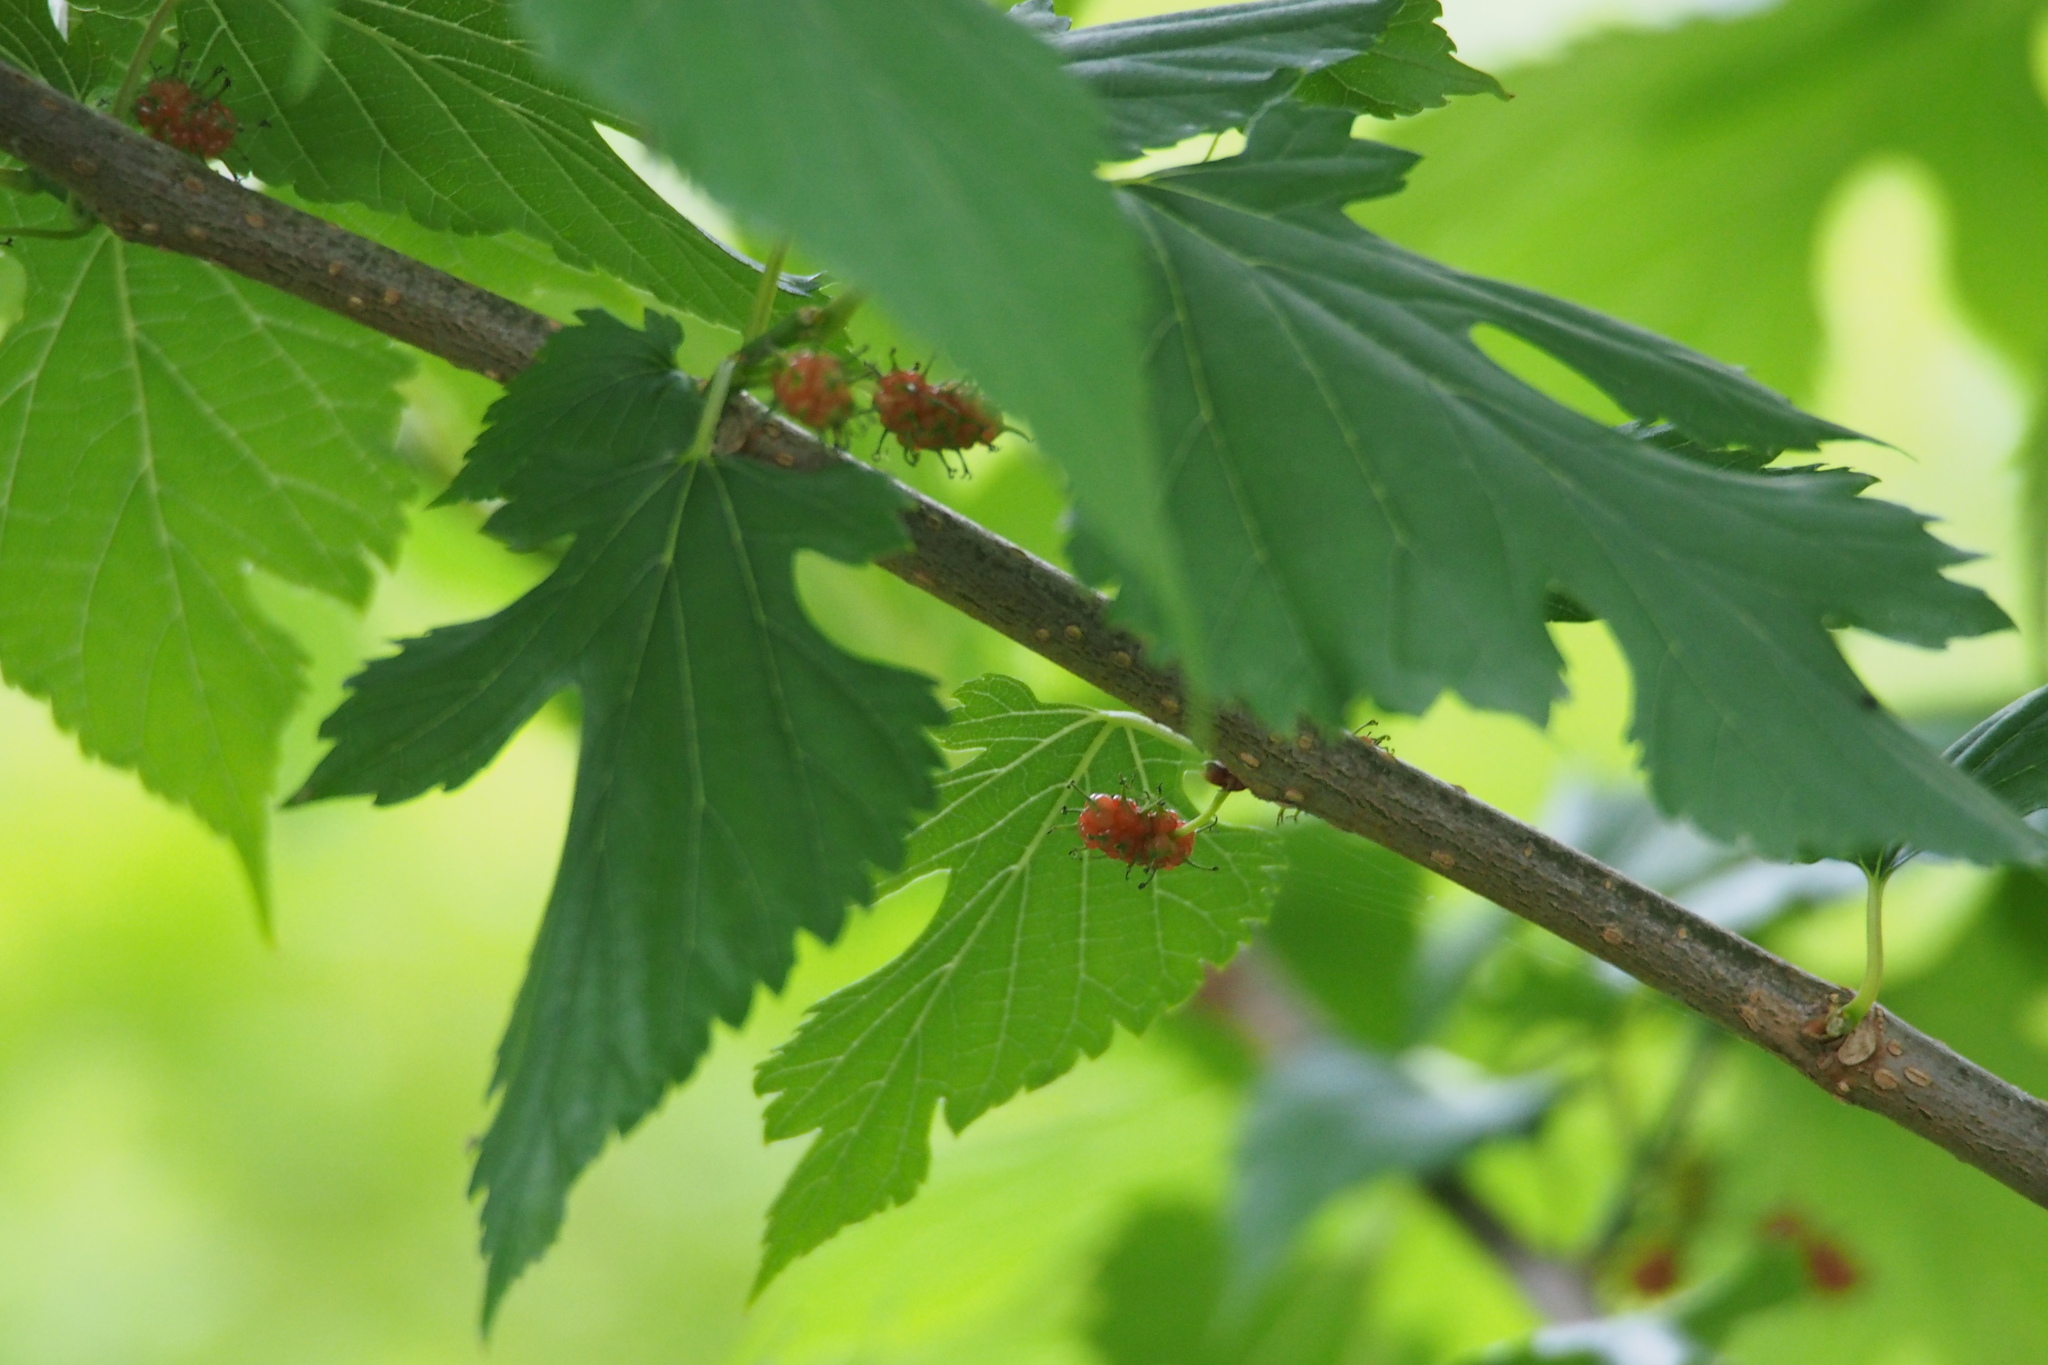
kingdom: Plantae
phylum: Tracheophyta
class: Magnoliopsida
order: Rosales
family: Moraceae
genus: Morus
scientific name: Morus indica
